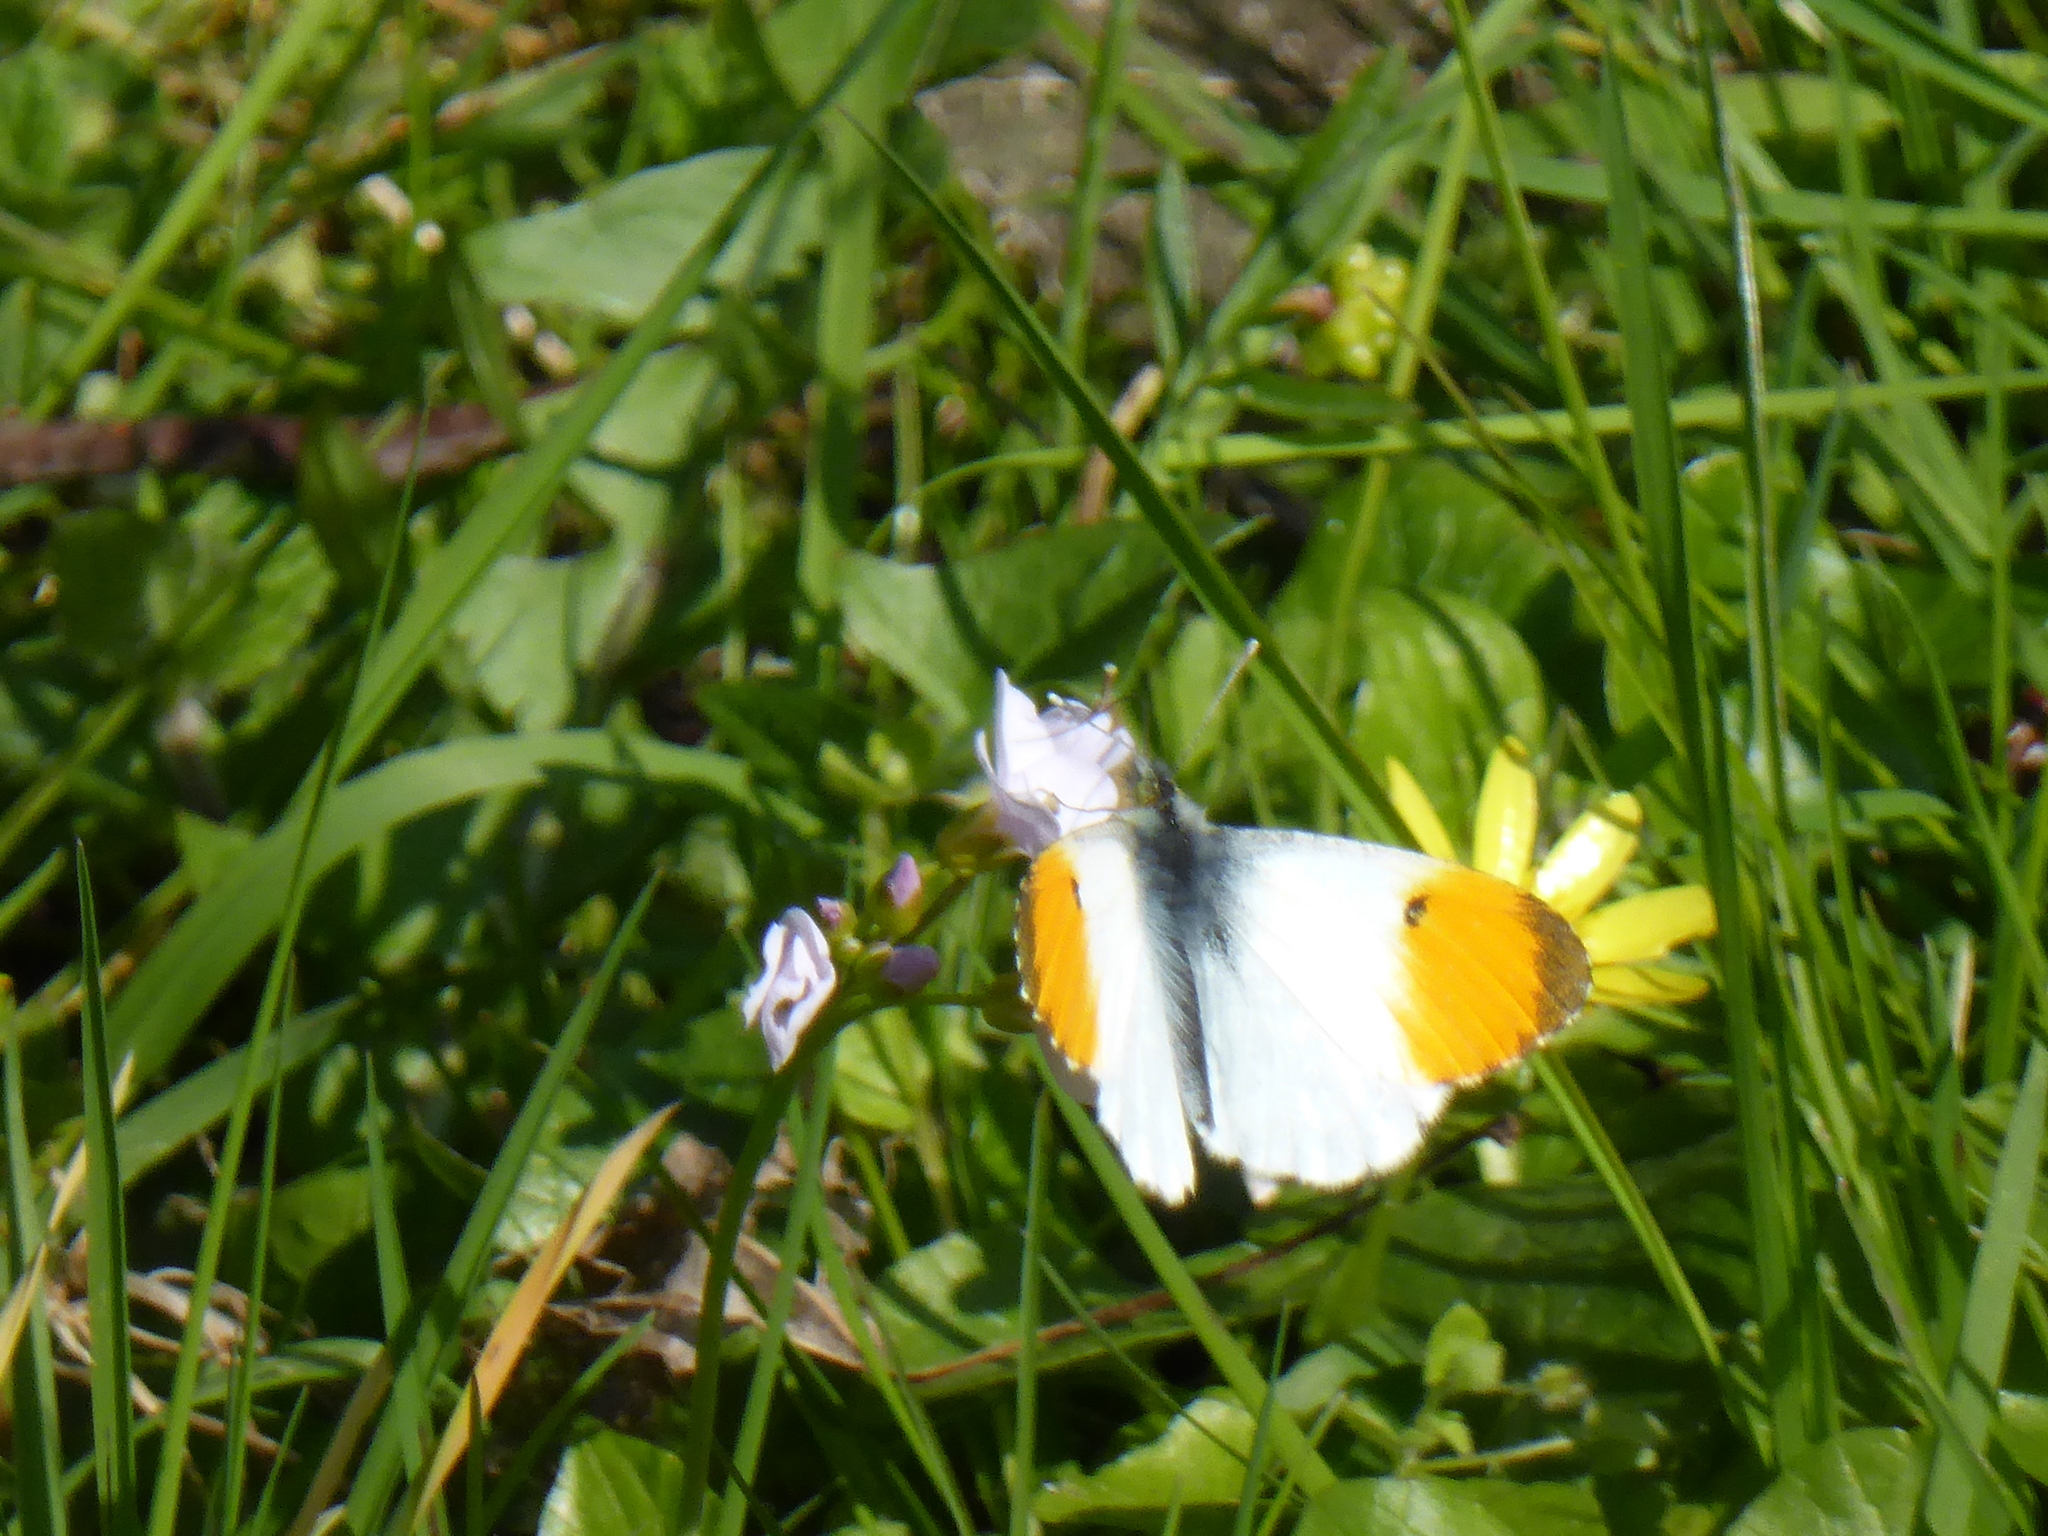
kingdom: Animalia
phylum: Arthropoda
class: Insecta
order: Lepidoptera
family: Pieridae
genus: Anthocharis
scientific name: Anthocharis cardamines
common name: Orange-tip
